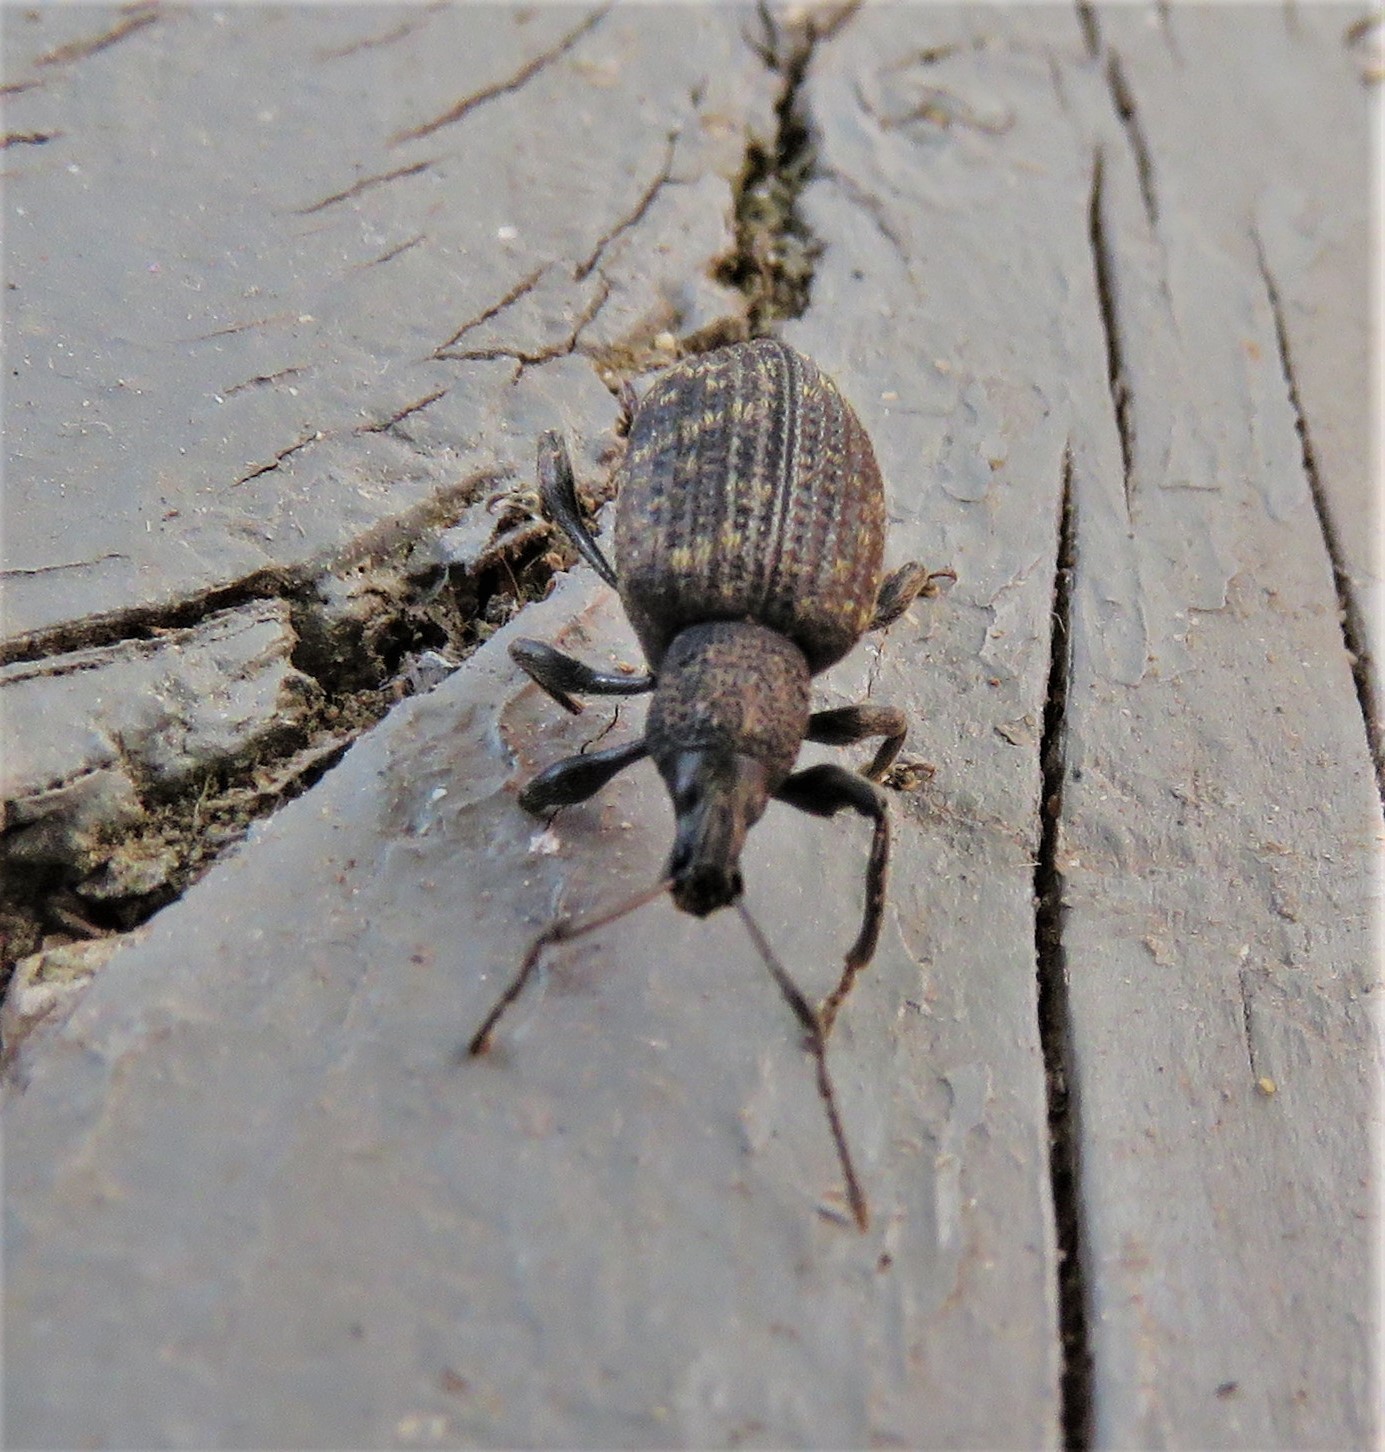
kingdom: Animalia
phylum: Arthropoda
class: Insecta
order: Coleoptera
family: Curculionidae
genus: Otiorhynchus
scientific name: Otiorhynchus sulcatus
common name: Black vine weevil
